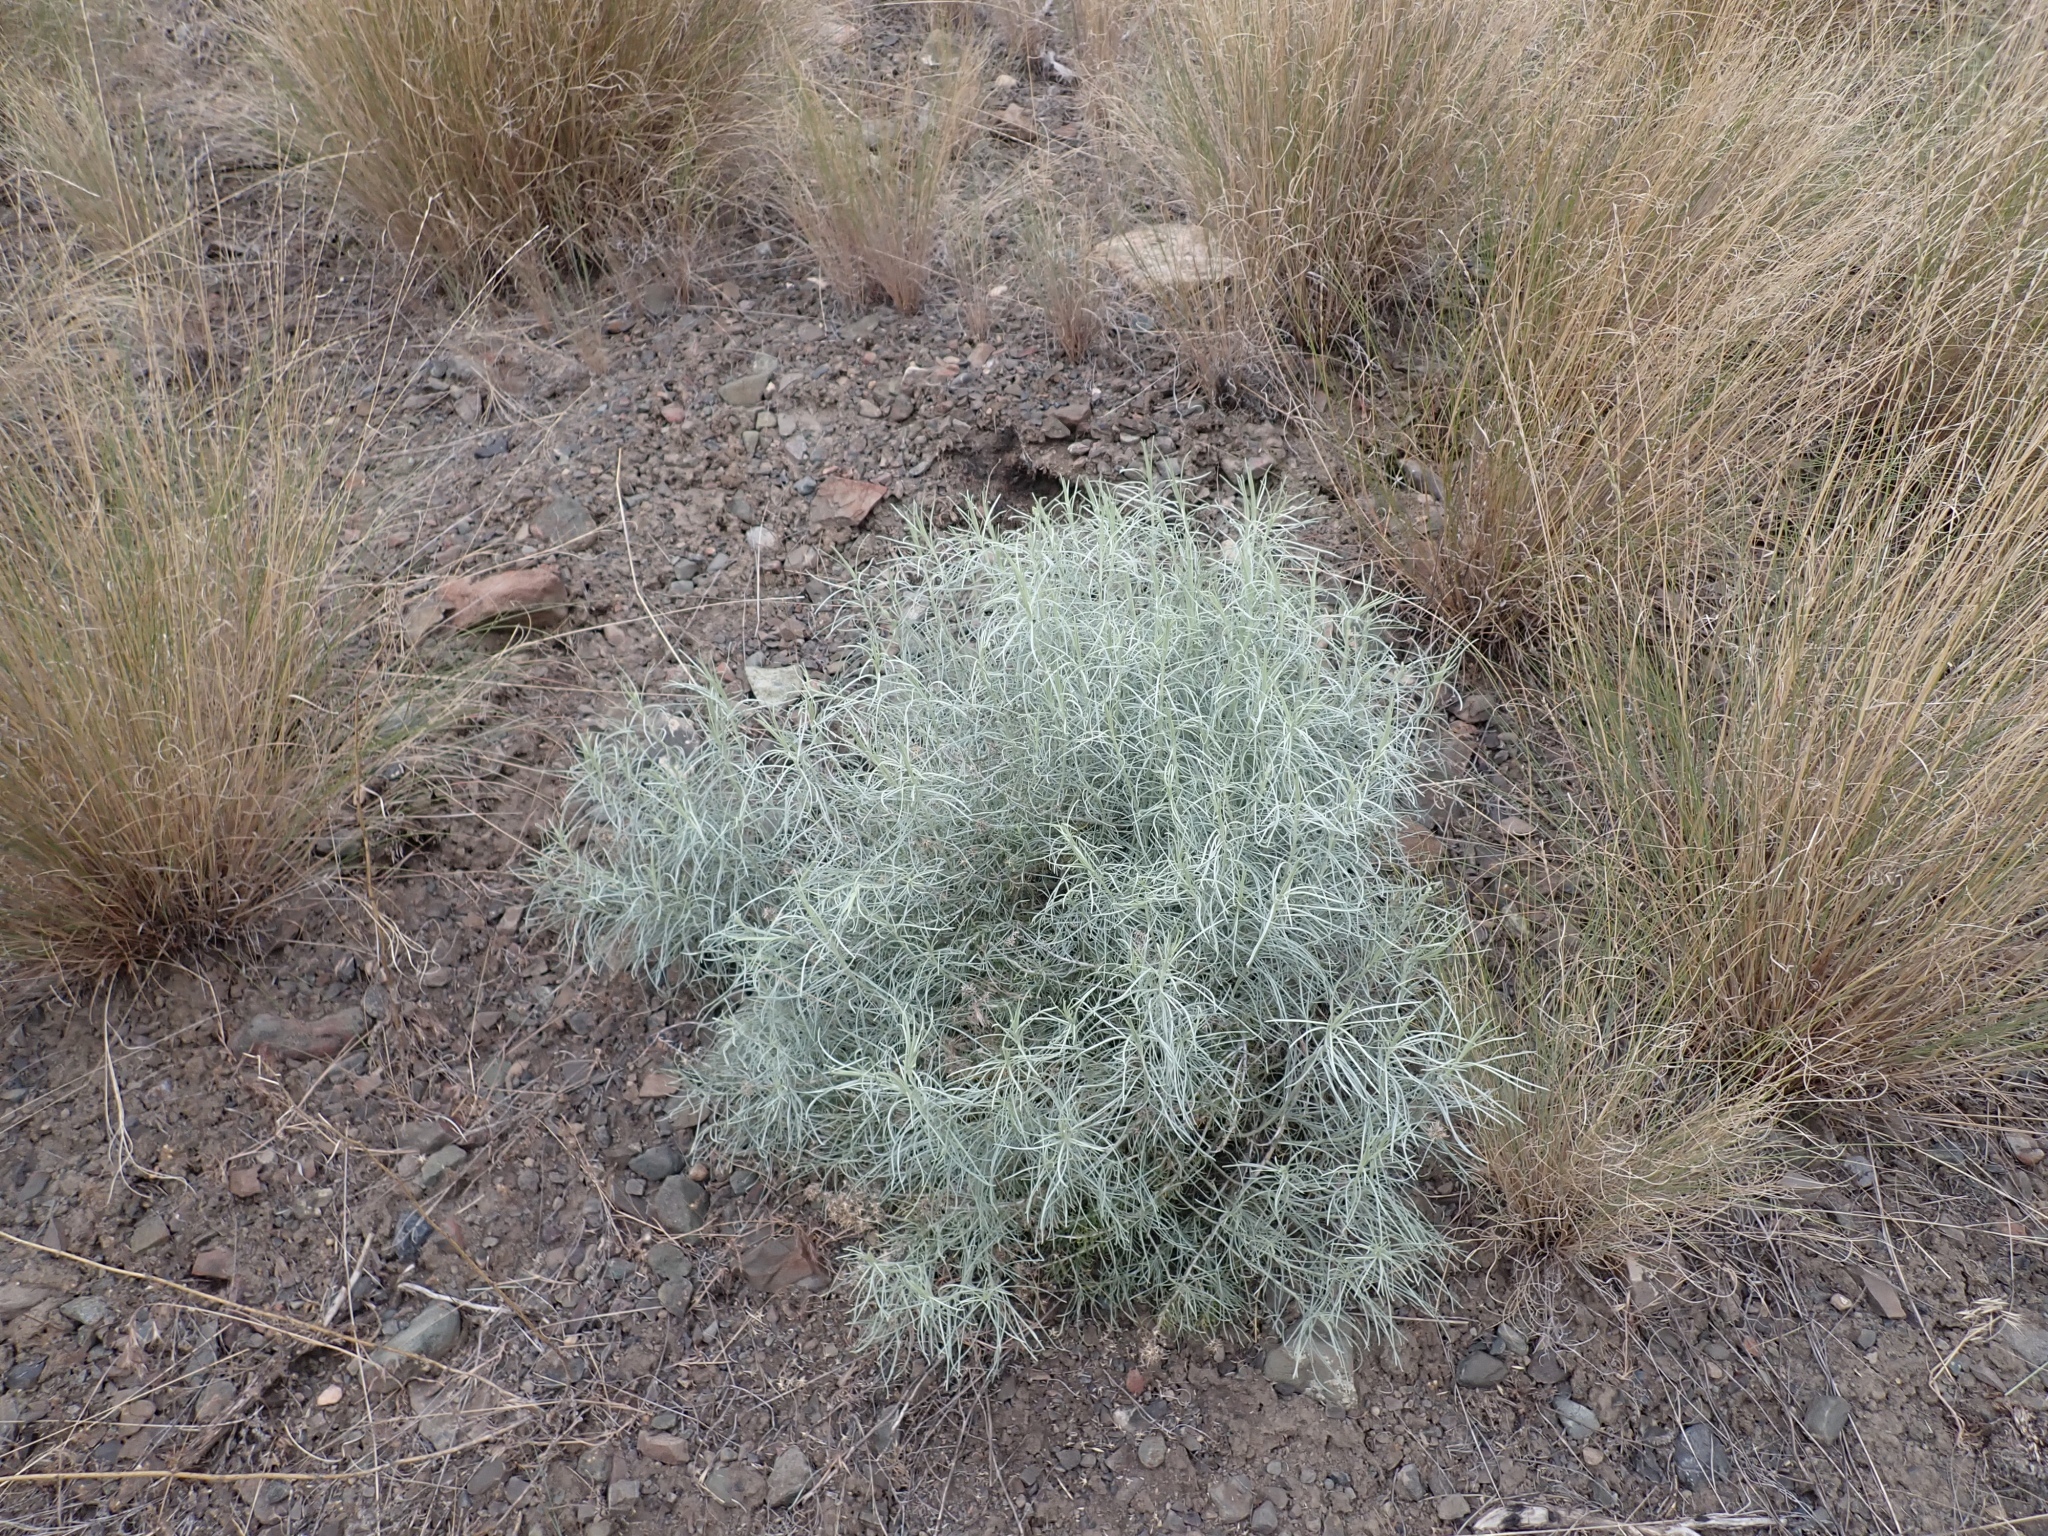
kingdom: Plantae
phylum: Tracheophyta
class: Magnoliopsida
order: Asterales
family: Asteraceae
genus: Ericameria
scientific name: Ericameria nauseosa
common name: Rubber rabbitbrush
